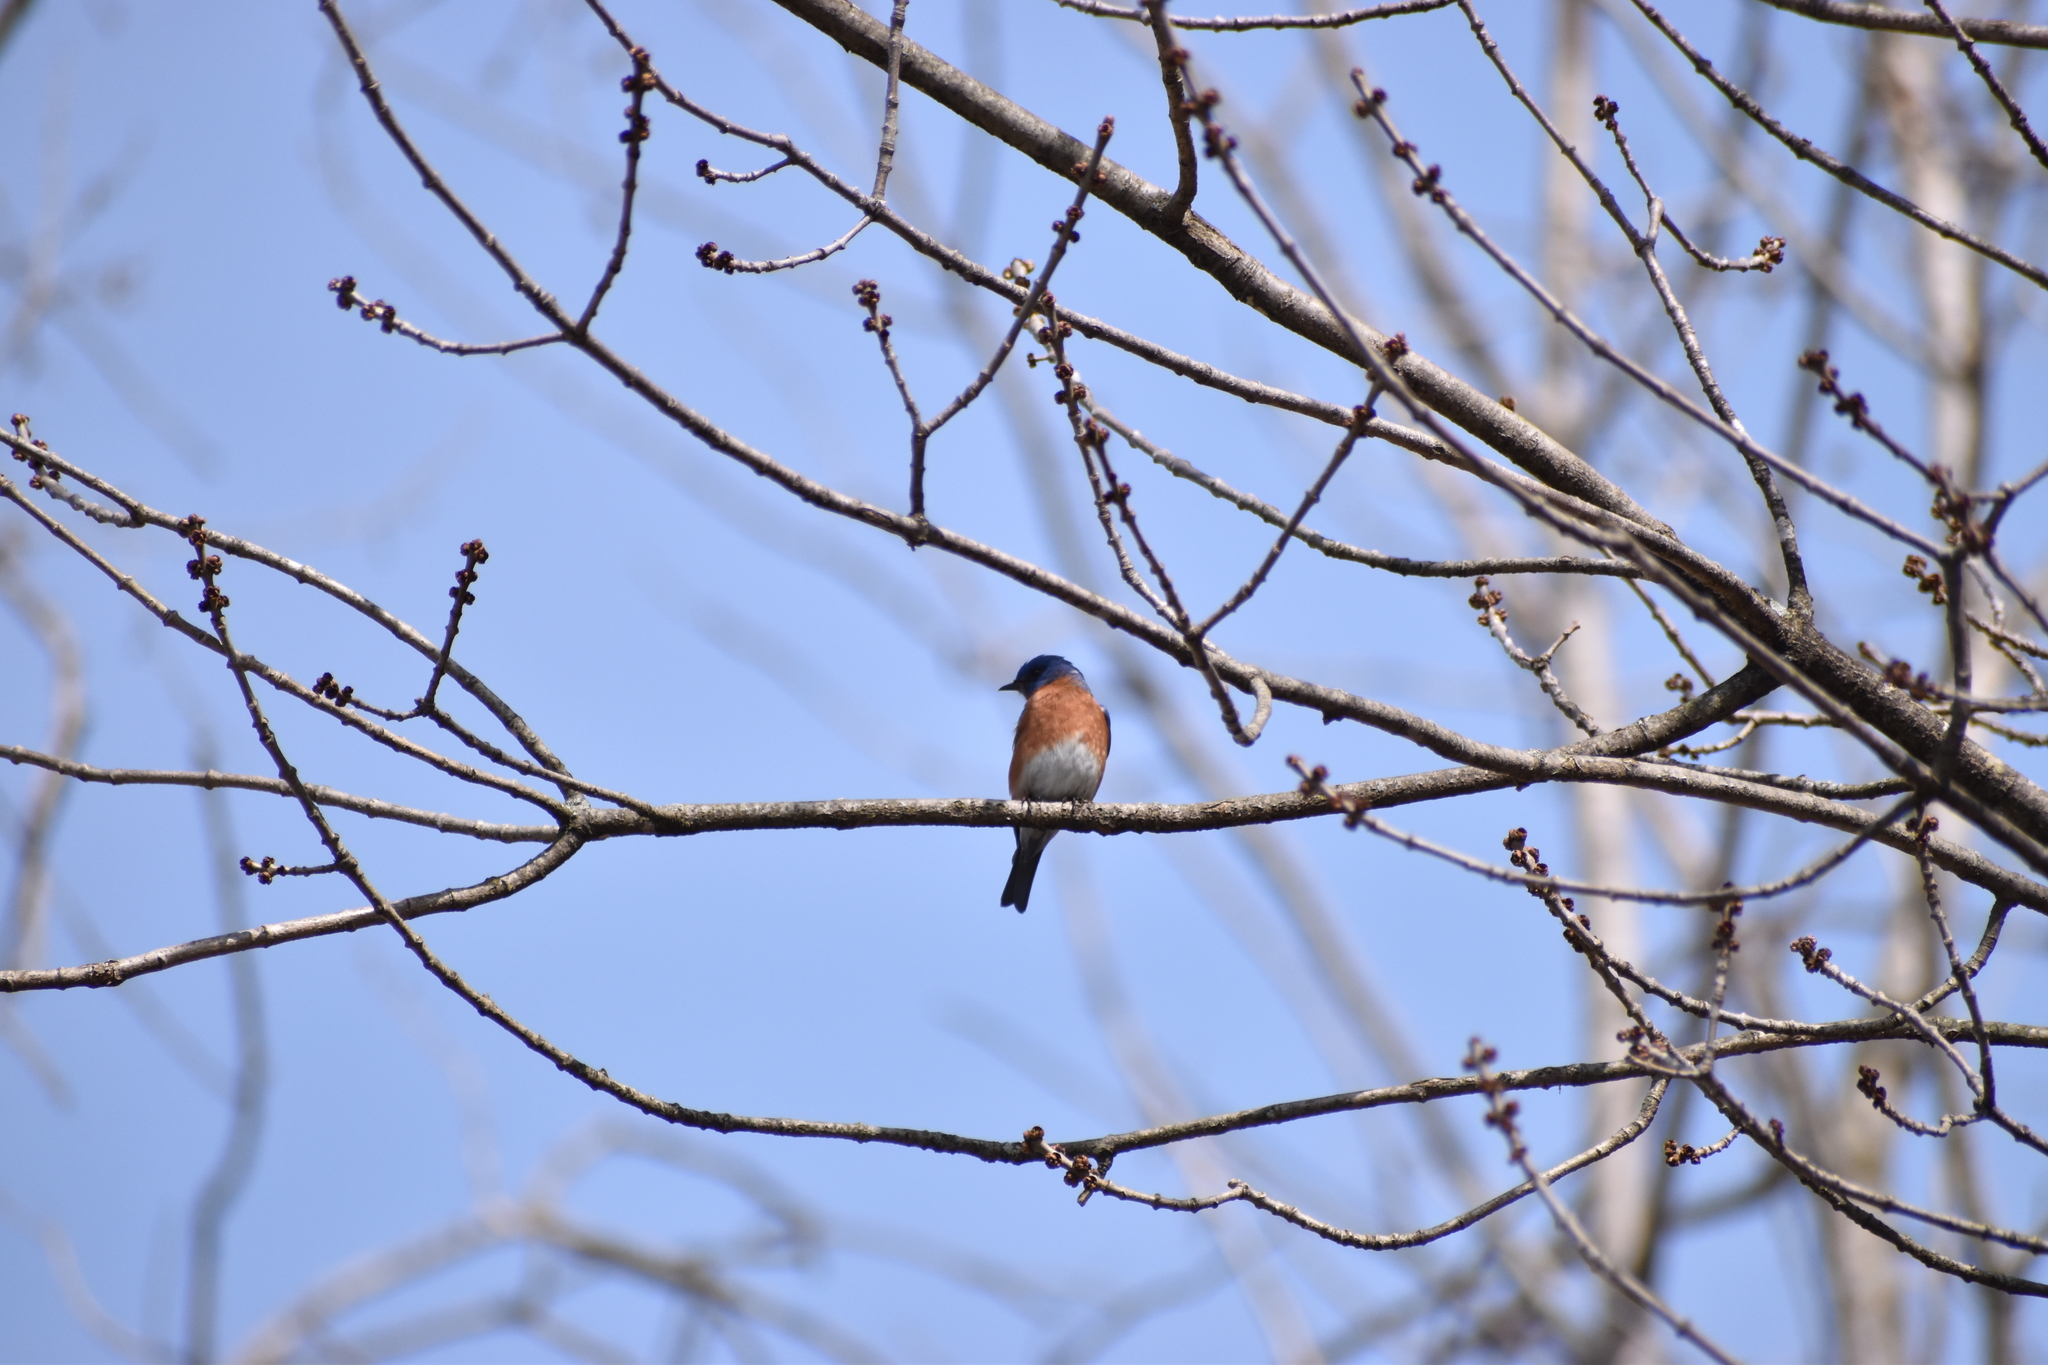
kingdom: Animalia
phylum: Chordata
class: Aves
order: Passeriformes
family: Turdidae
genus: Sialia
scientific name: Sialia sialis
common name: Eastern bluebird
